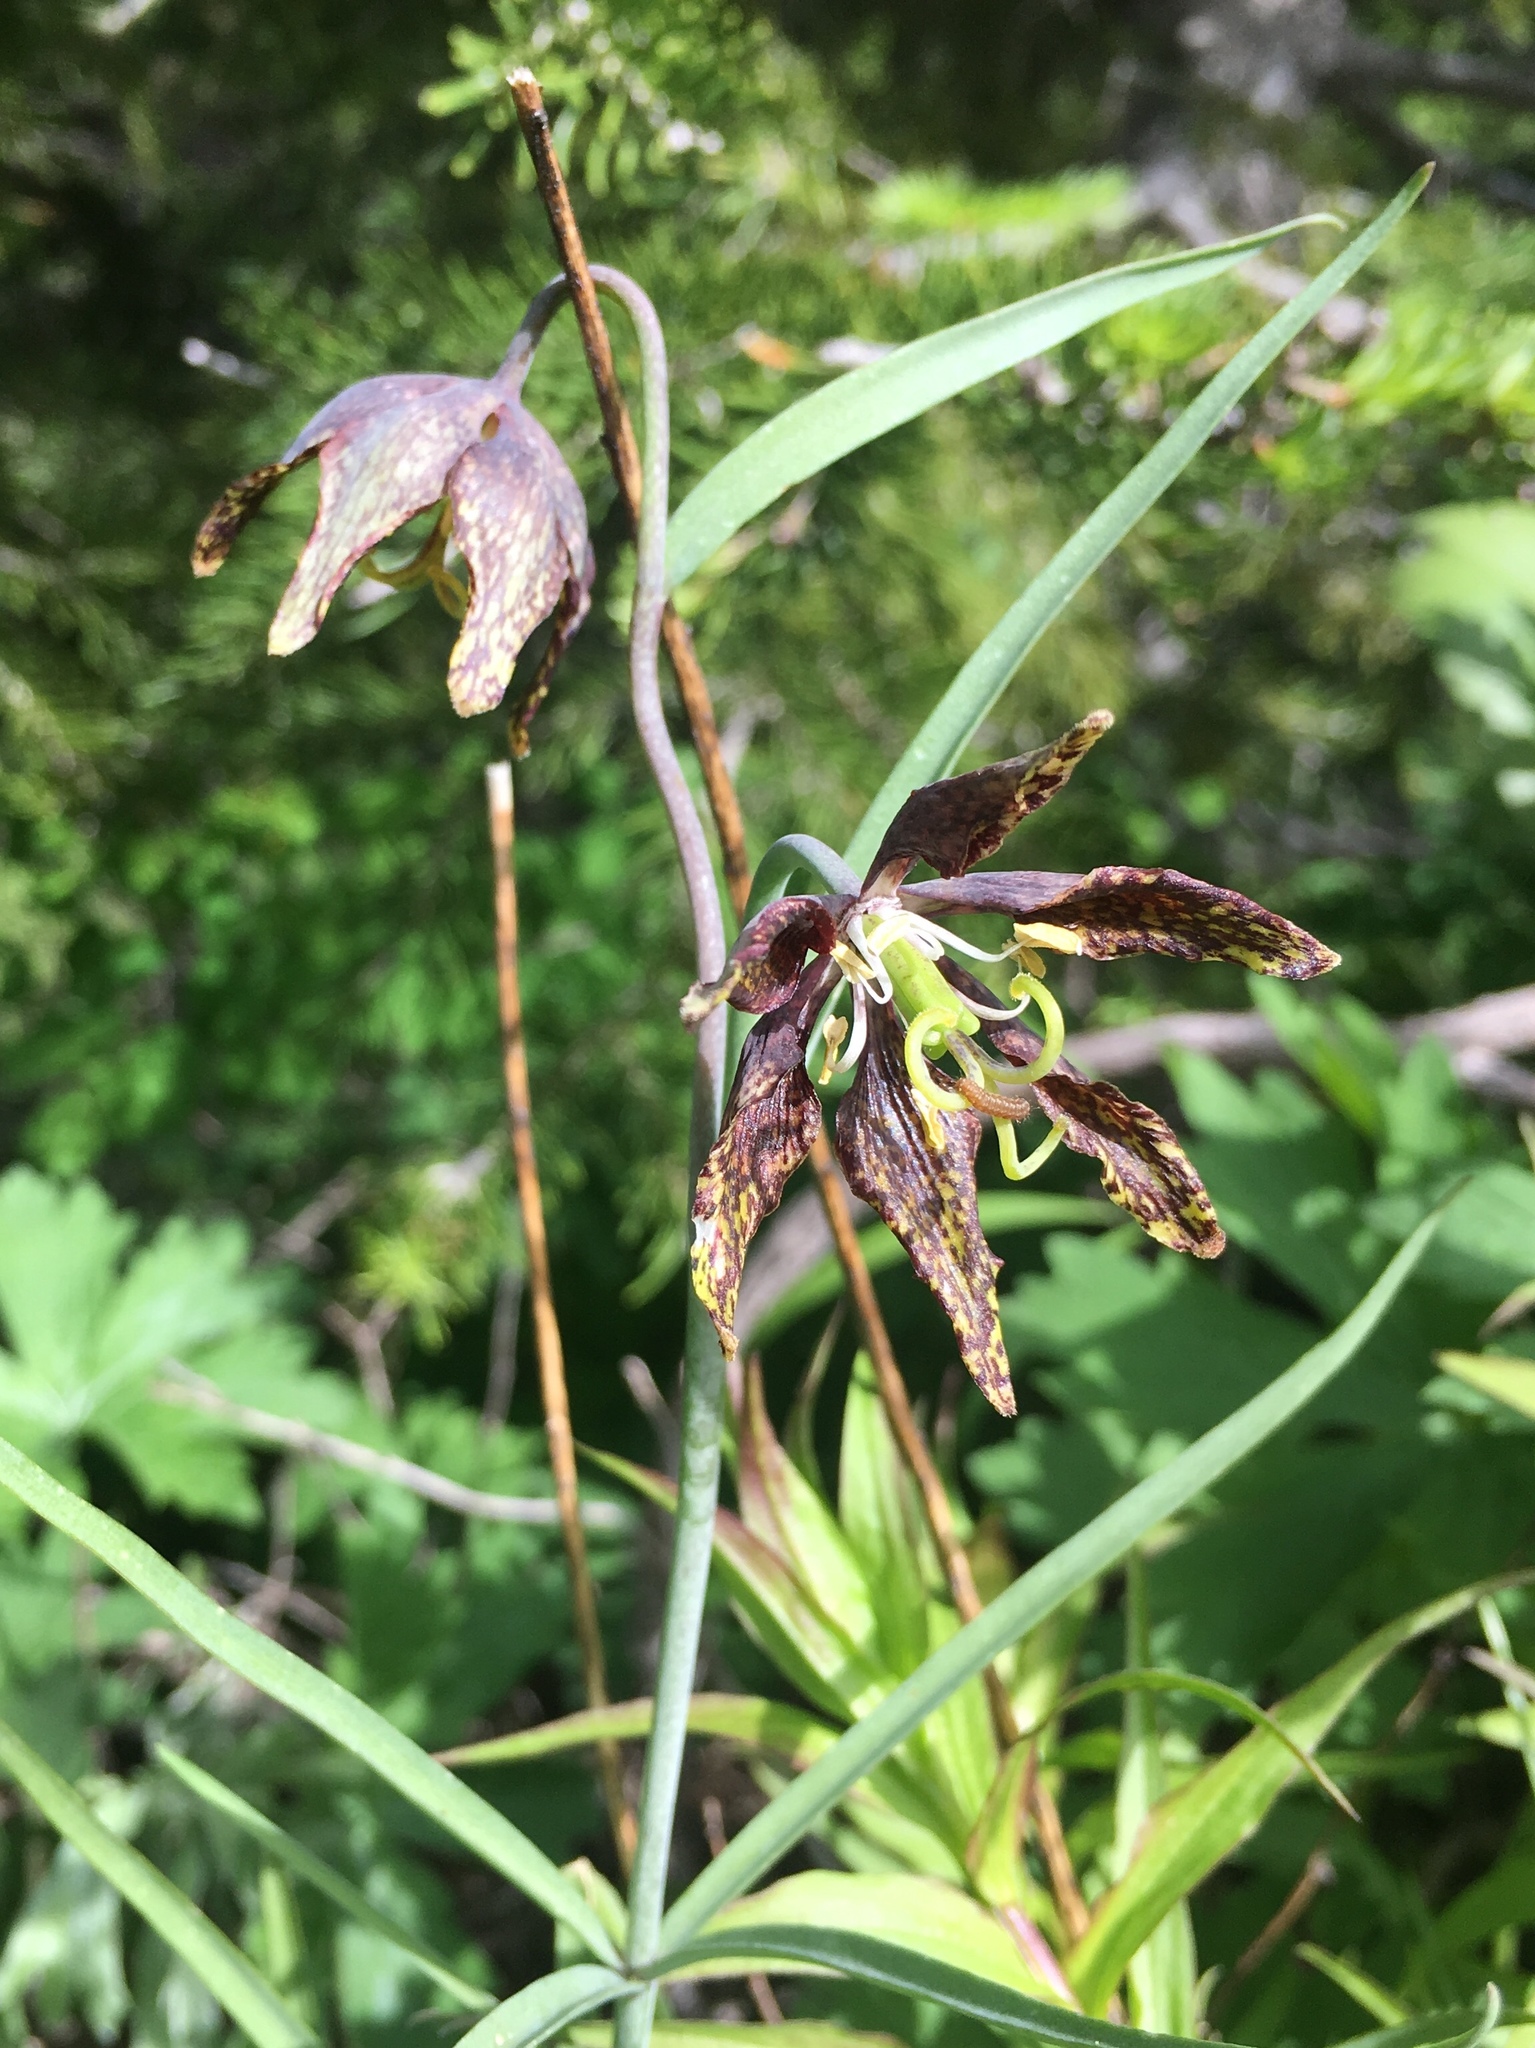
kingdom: Plantae
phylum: Tracheophyta
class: Liliopsida
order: Liliales
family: Liliaceae
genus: Fritillaria
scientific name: Fritillaria atropurpurea
